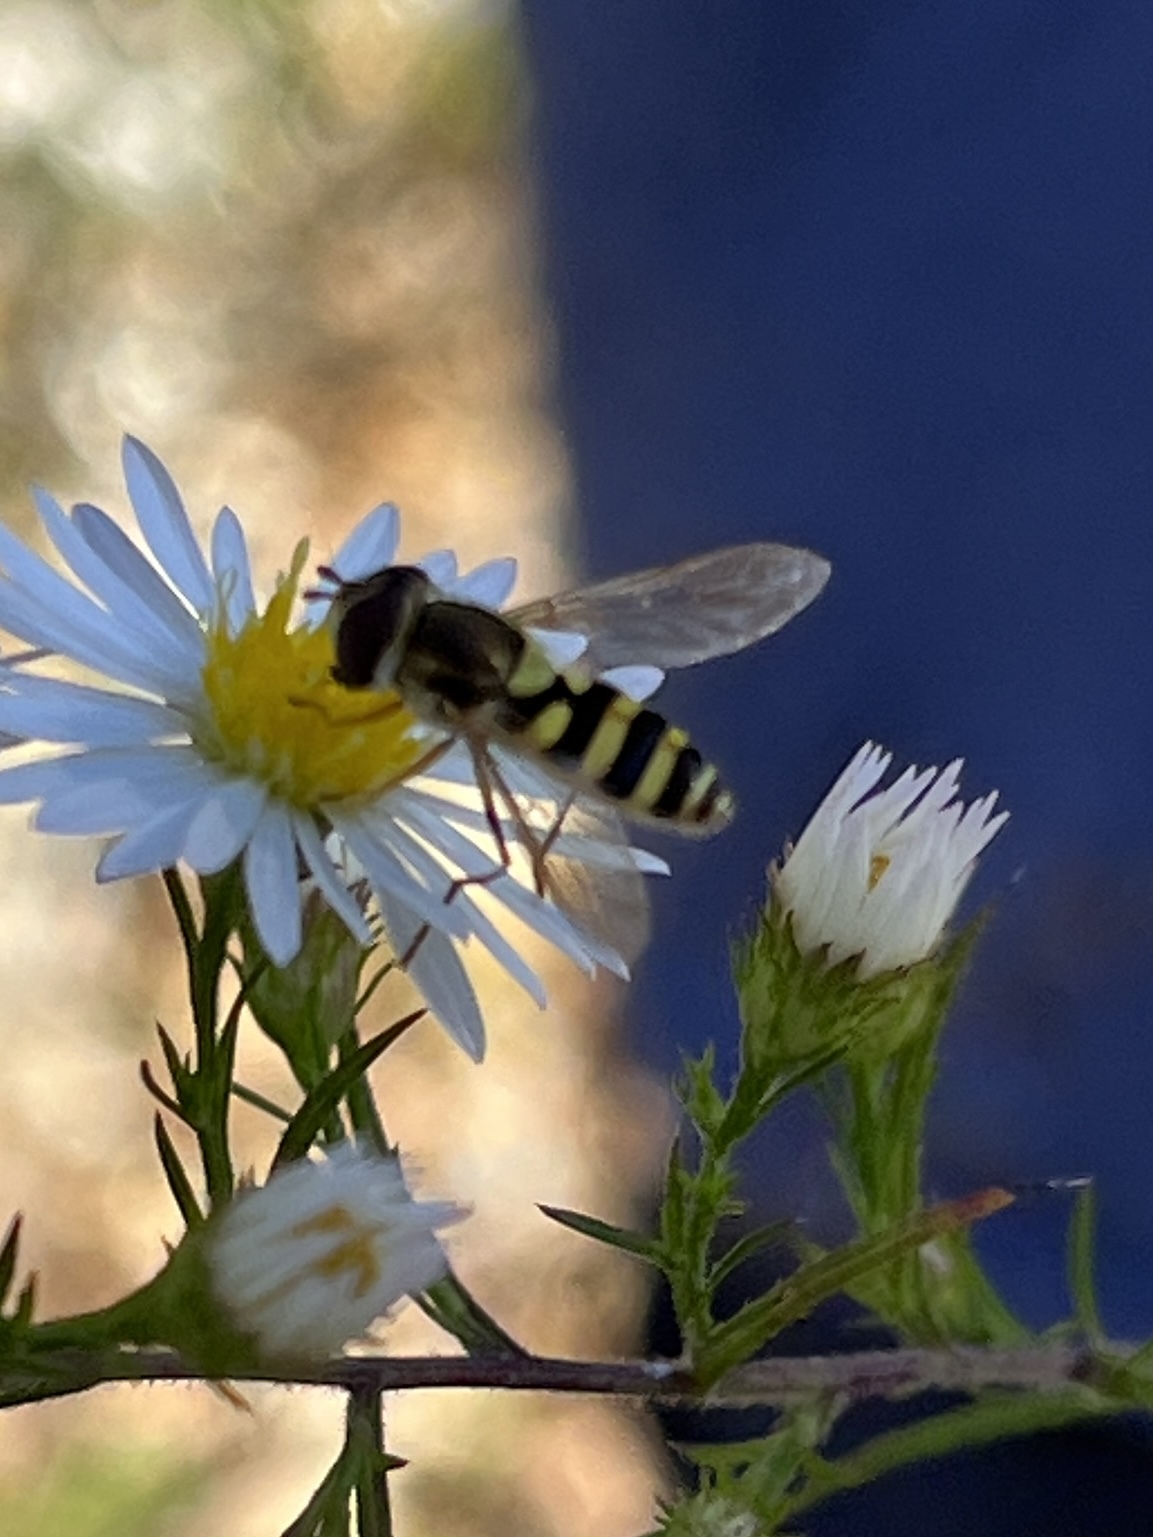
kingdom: Animalia
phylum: Arthropoda
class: Insecta
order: Diptera
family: Syrphidae
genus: Syrphus
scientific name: Syrphus rectus
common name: Yellow-legged flower fly
